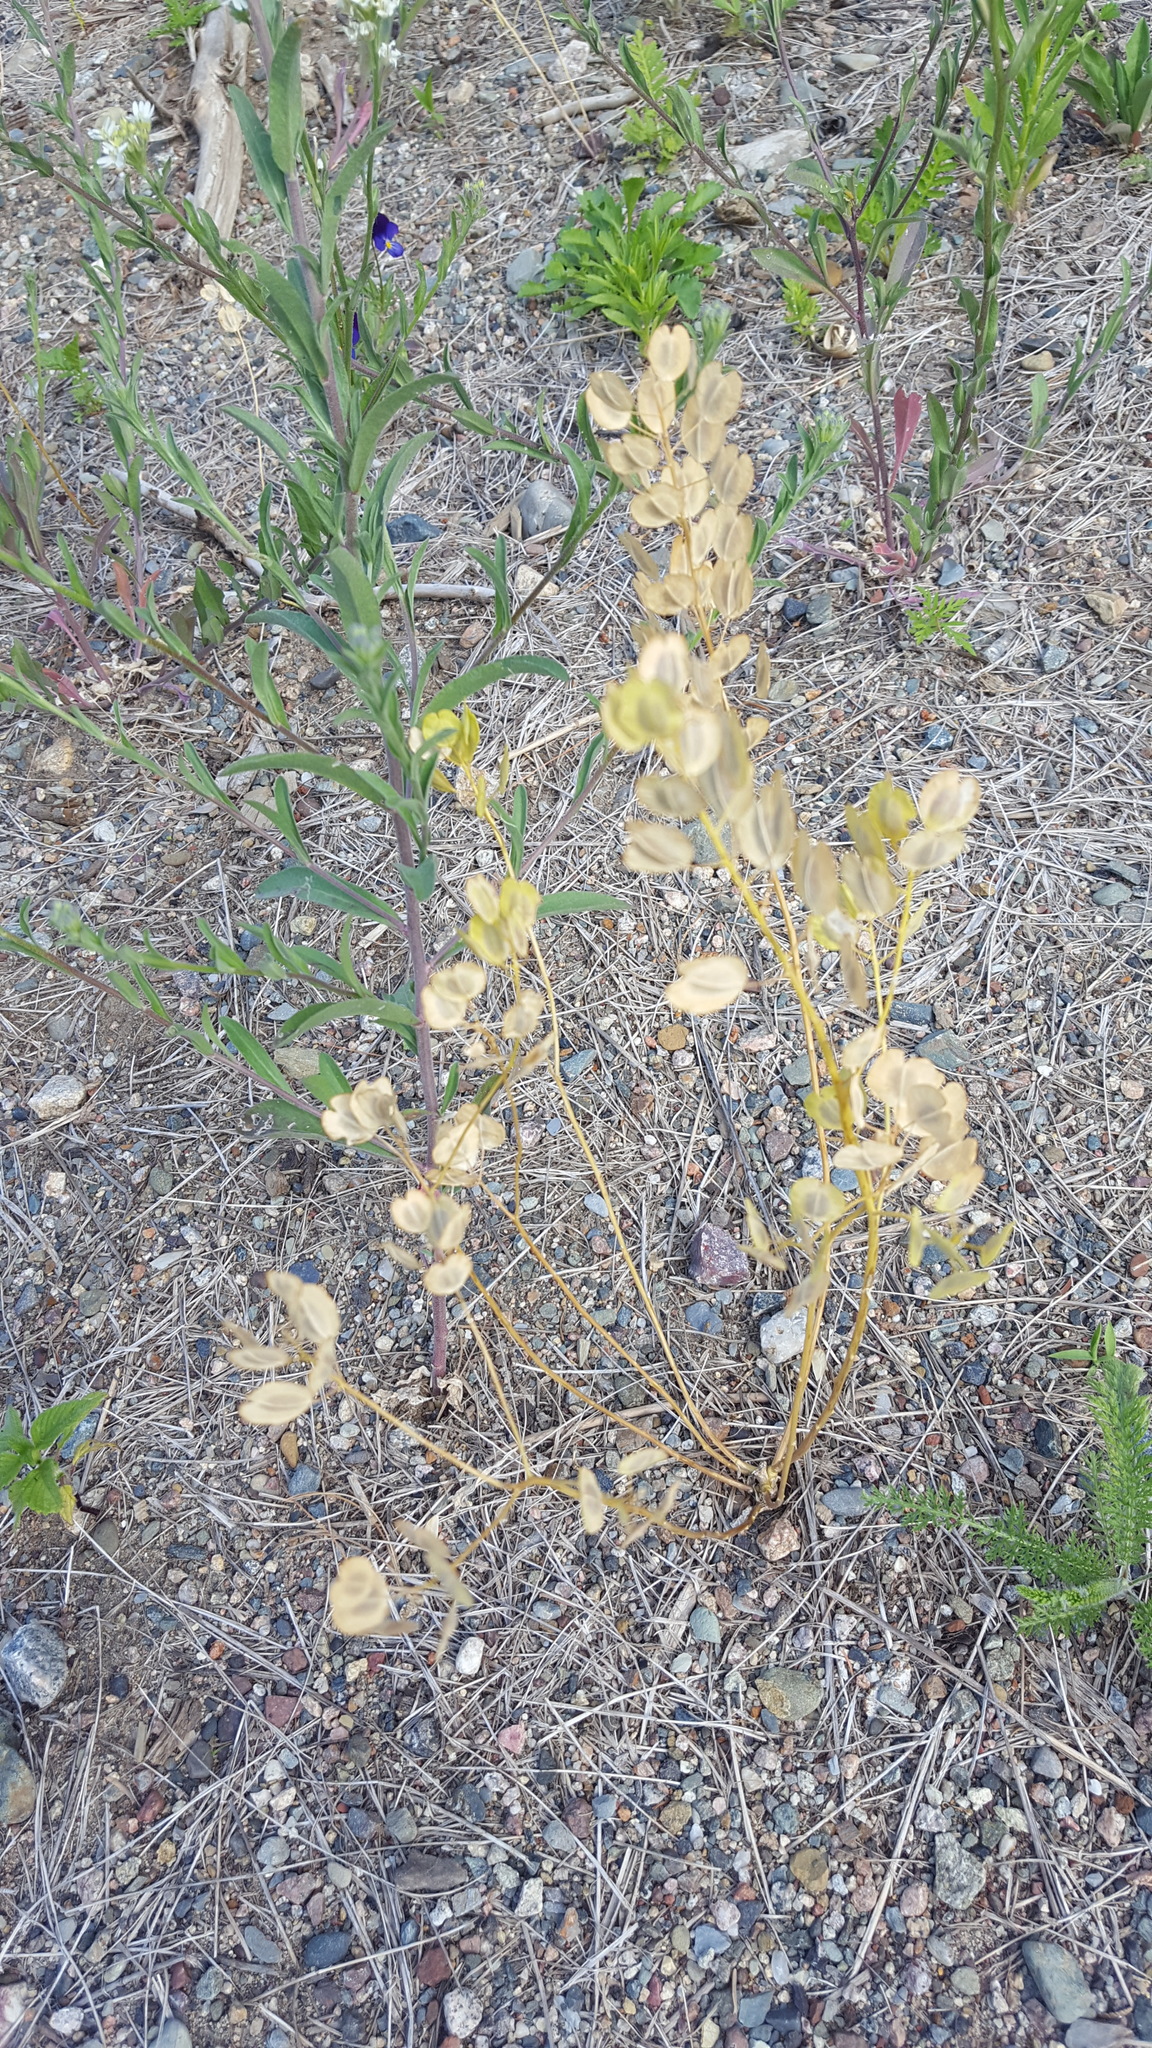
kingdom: Plantae
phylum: Tracheophyta
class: Magnoliopsida
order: Brassicales
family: Brassicaceae
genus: Thlaspi
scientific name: Thlaspi arvense
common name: Field pennycress
